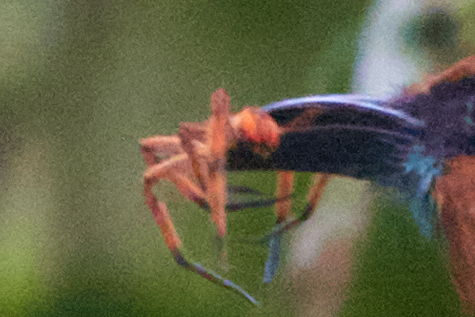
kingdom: Animalia
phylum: Arthropoda
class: Arachnida
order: Araneae
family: Trechaleidae
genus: Cupiennius
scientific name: Cupiennius getazi
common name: Wandering spiders
